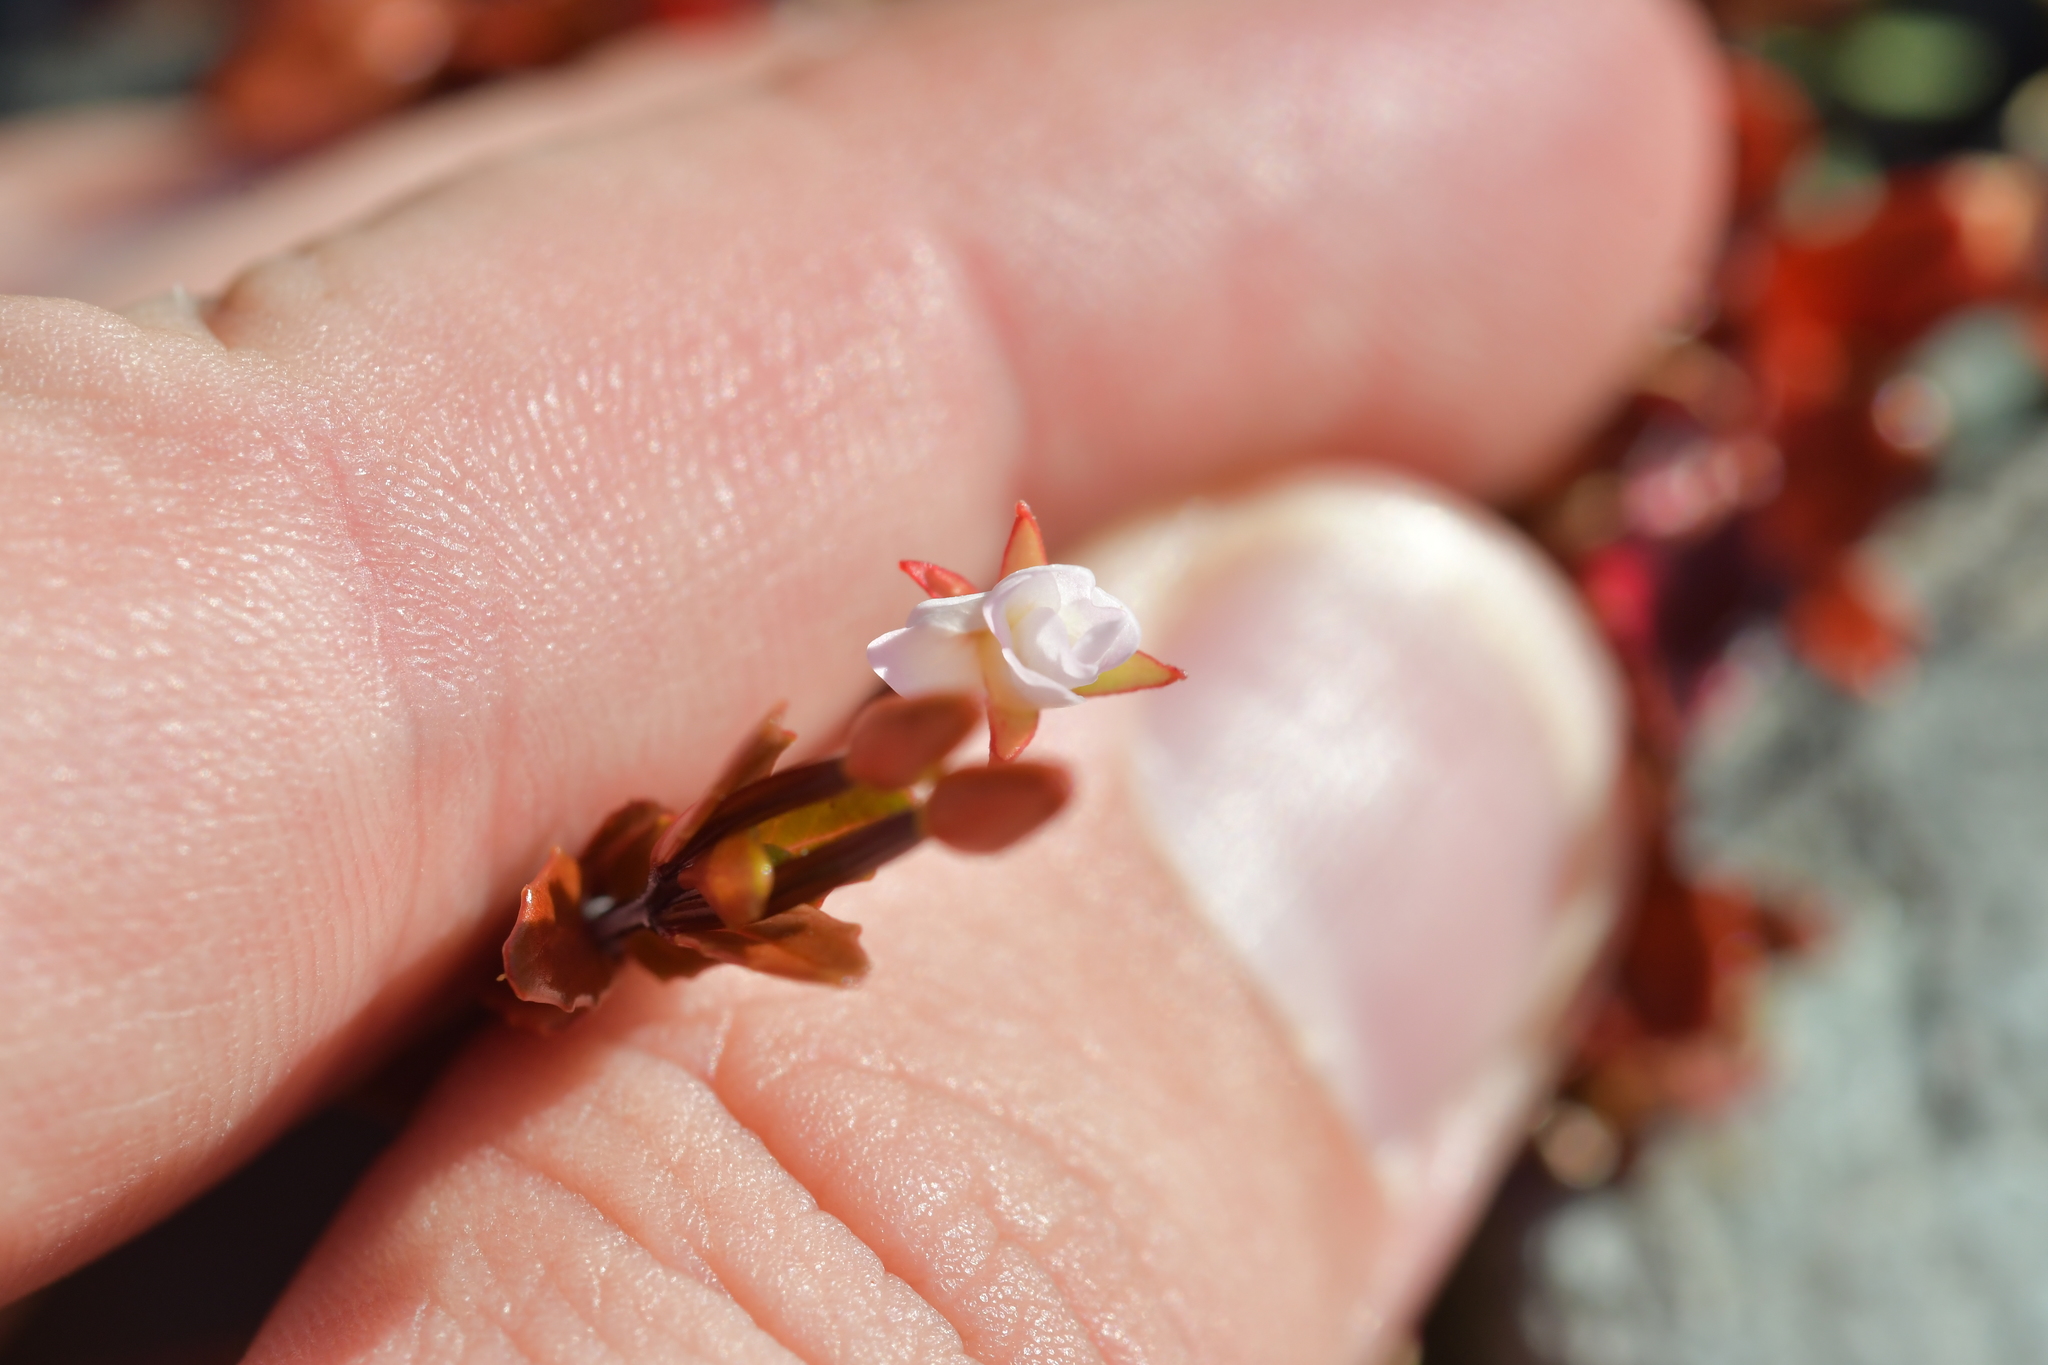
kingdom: Plantae
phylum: Tracheophyta
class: Magnoliopsida
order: Myrtales
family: Onagraceae
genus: Epilobium
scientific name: Epilobium glabellum
